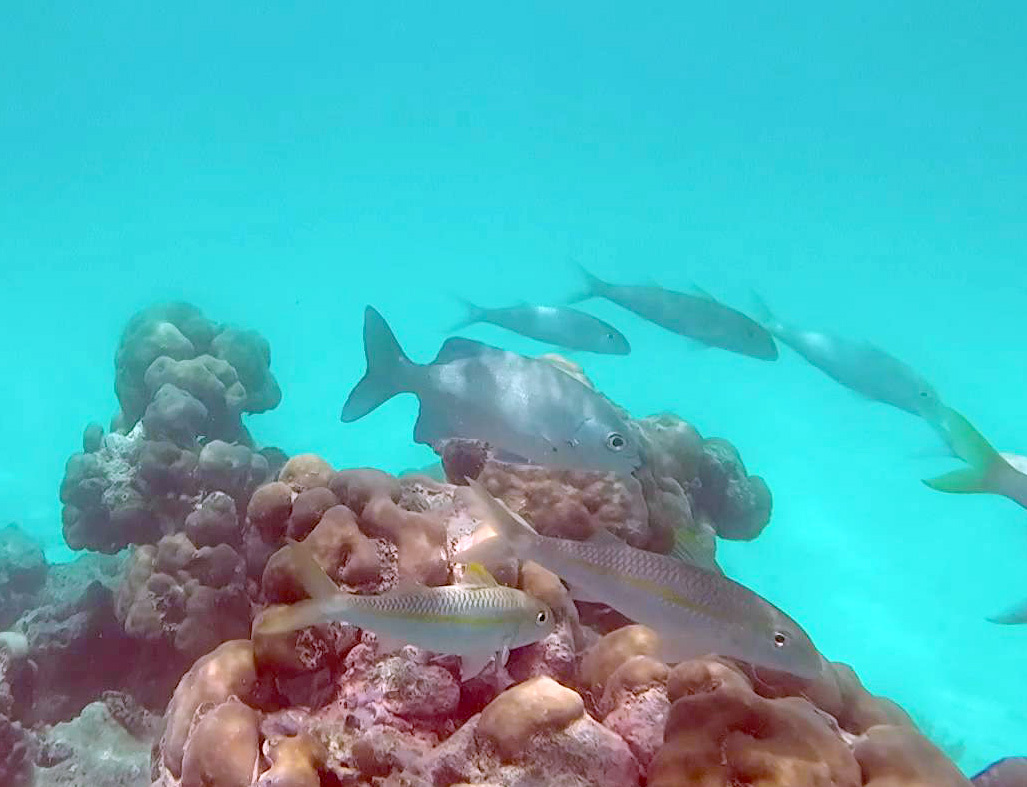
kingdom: Animalia
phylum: Chordata
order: Perciformes
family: Kyphosidae
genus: Kyphosus
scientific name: Kyphosus cinerascens
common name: Topsail drummer
